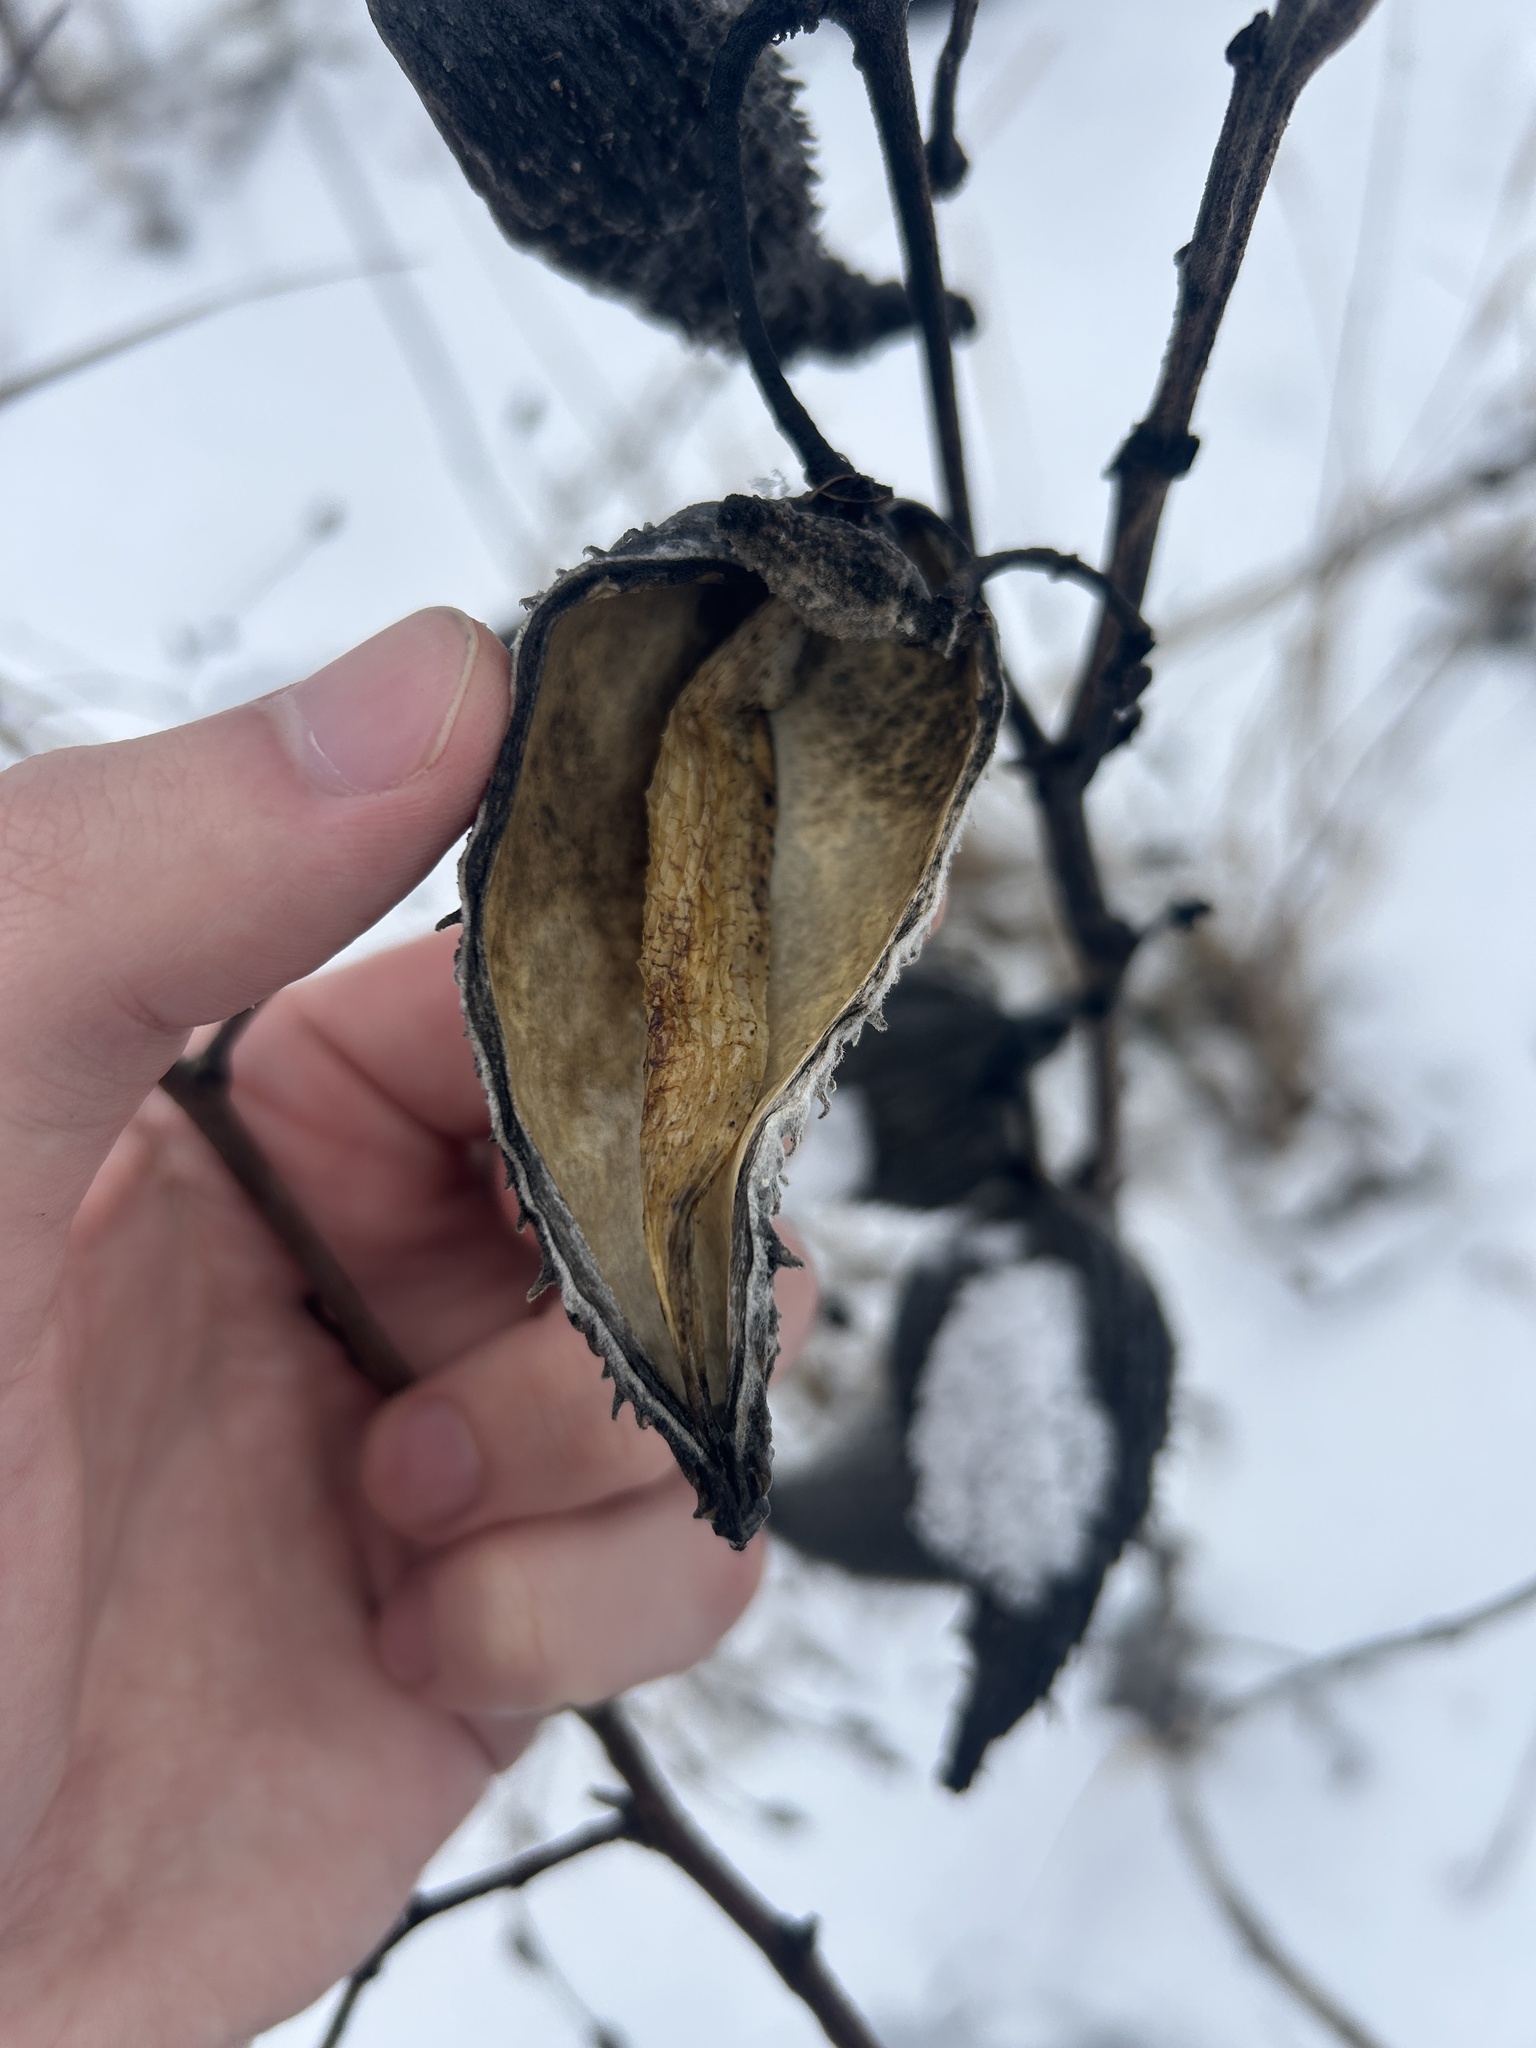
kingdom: Plantae
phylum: Tracheophyta
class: Magnoliopsida
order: Gentianales
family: Apocynaceae
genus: Asclepias
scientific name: Asclepias syriaca
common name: Common milkweed
